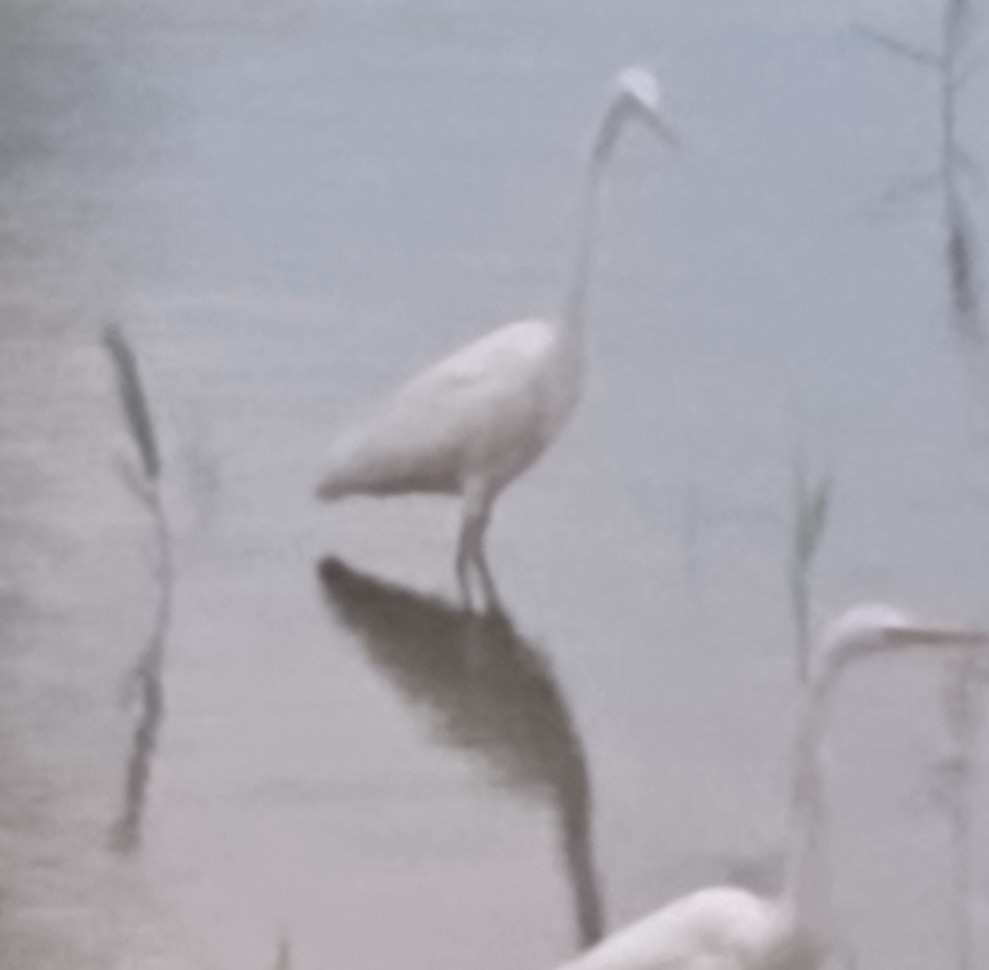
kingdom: Animalia
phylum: Chordata
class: Aves
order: Pelecaniformes
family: Ardeidae
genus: Ardea
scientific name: Ardea alba
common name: Great egret
